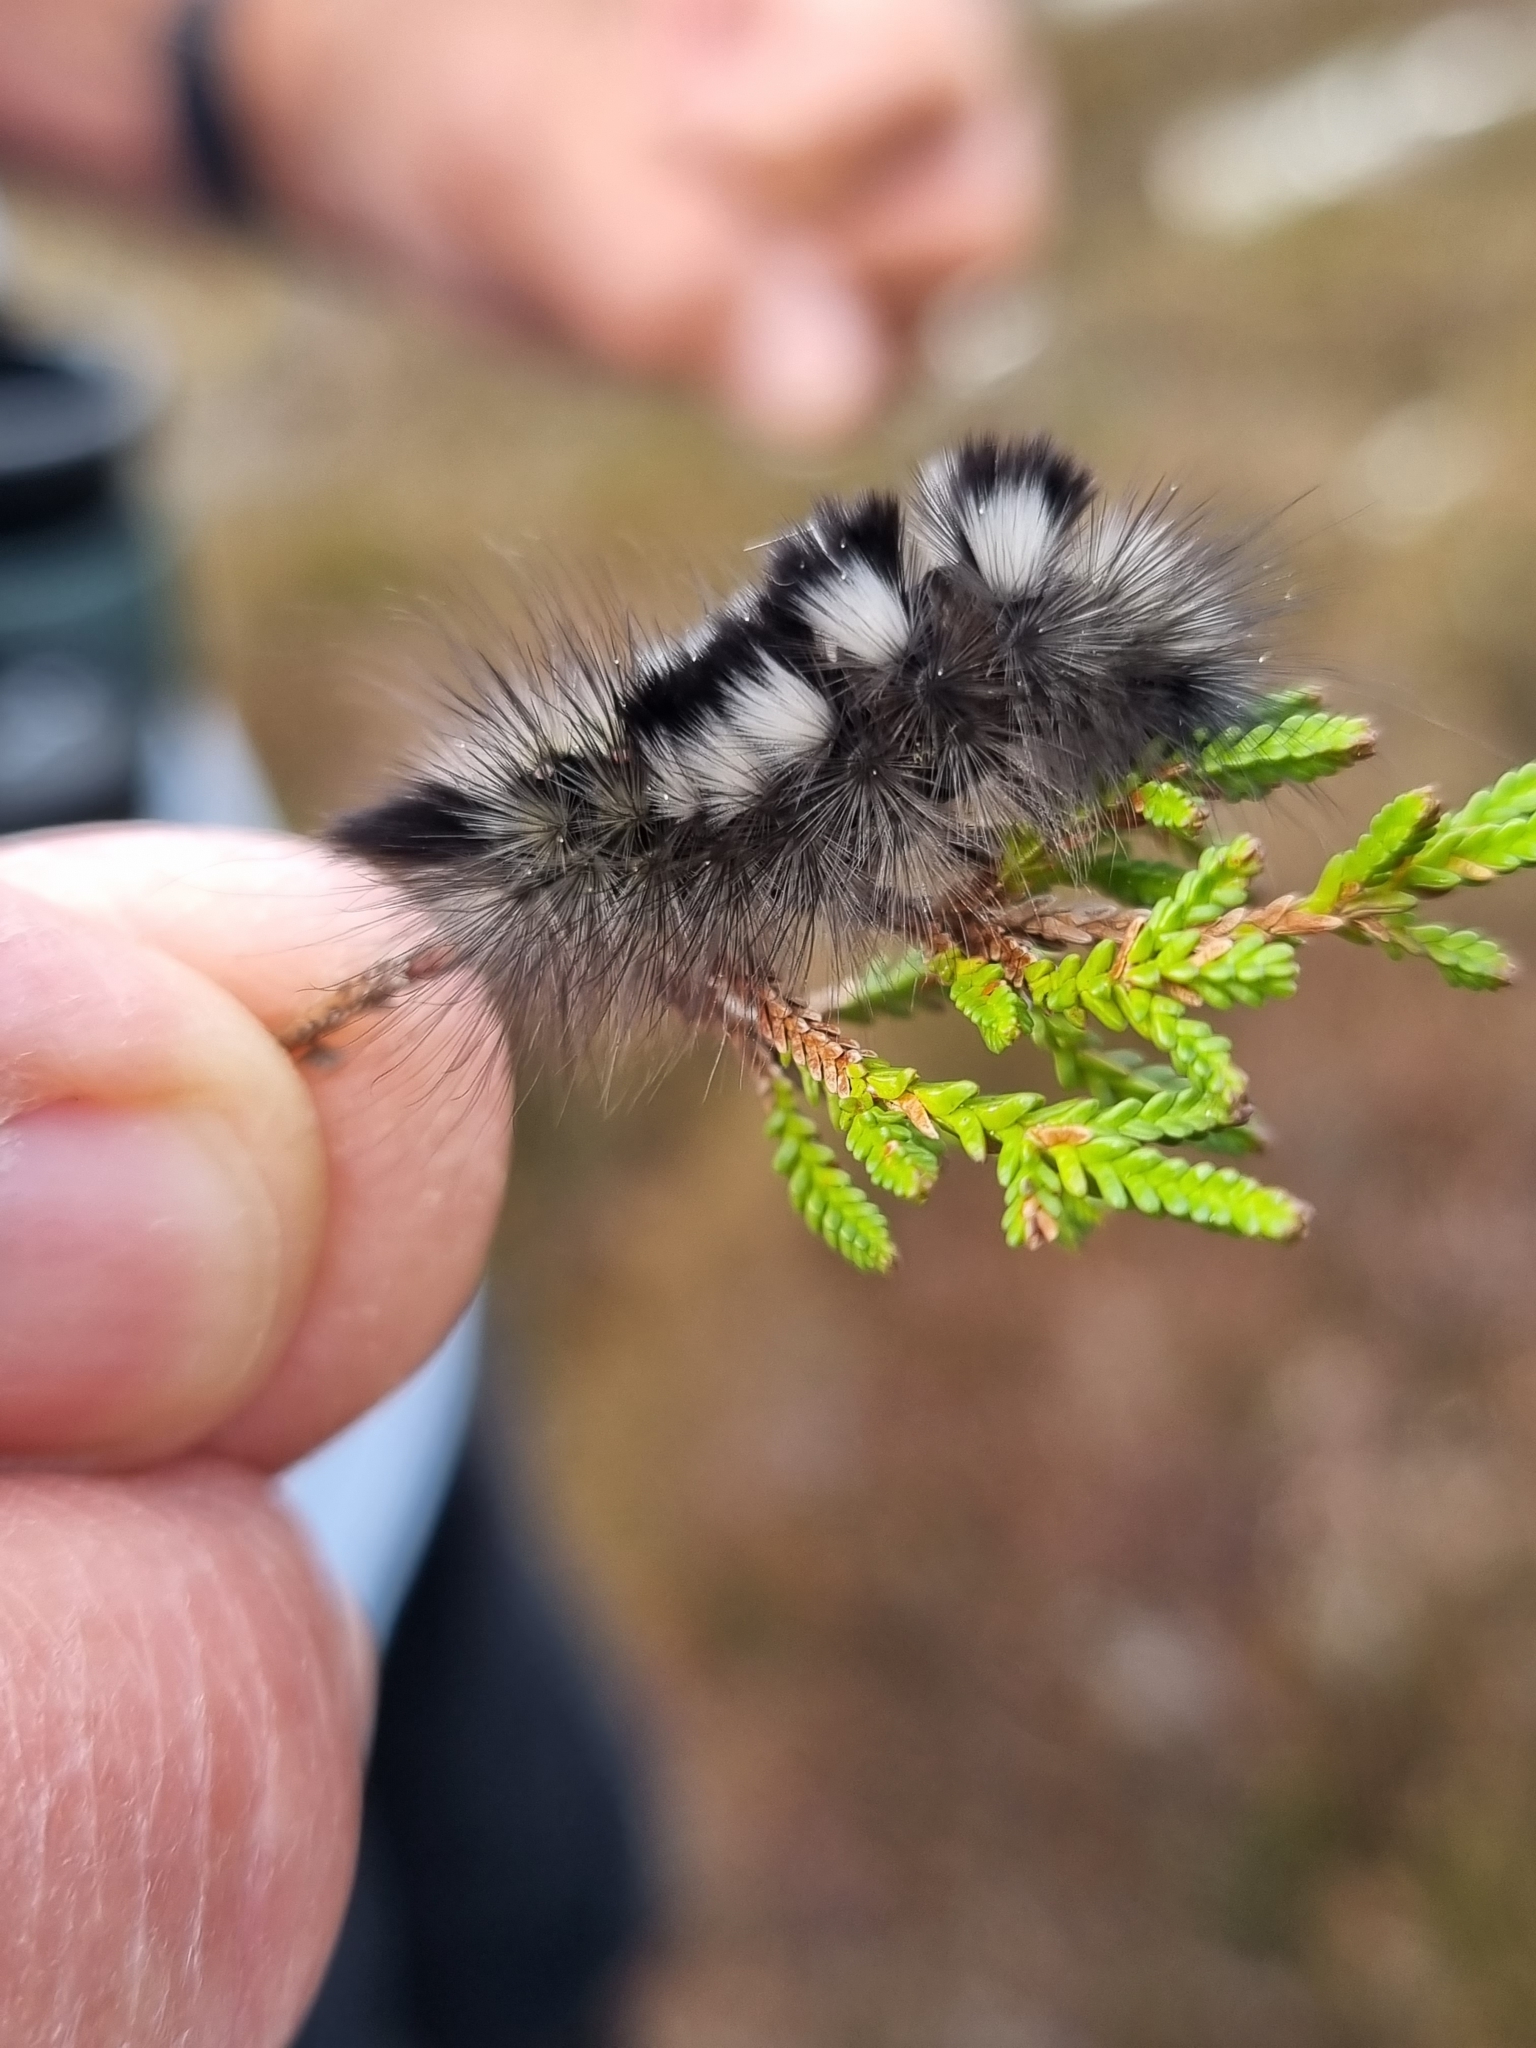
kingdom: Animalia
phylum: Arthropoda
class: Insecta
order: Lepidoptera
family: Erebidae
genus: Calliteara
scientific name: Calliteara Dicallomera fascelina
